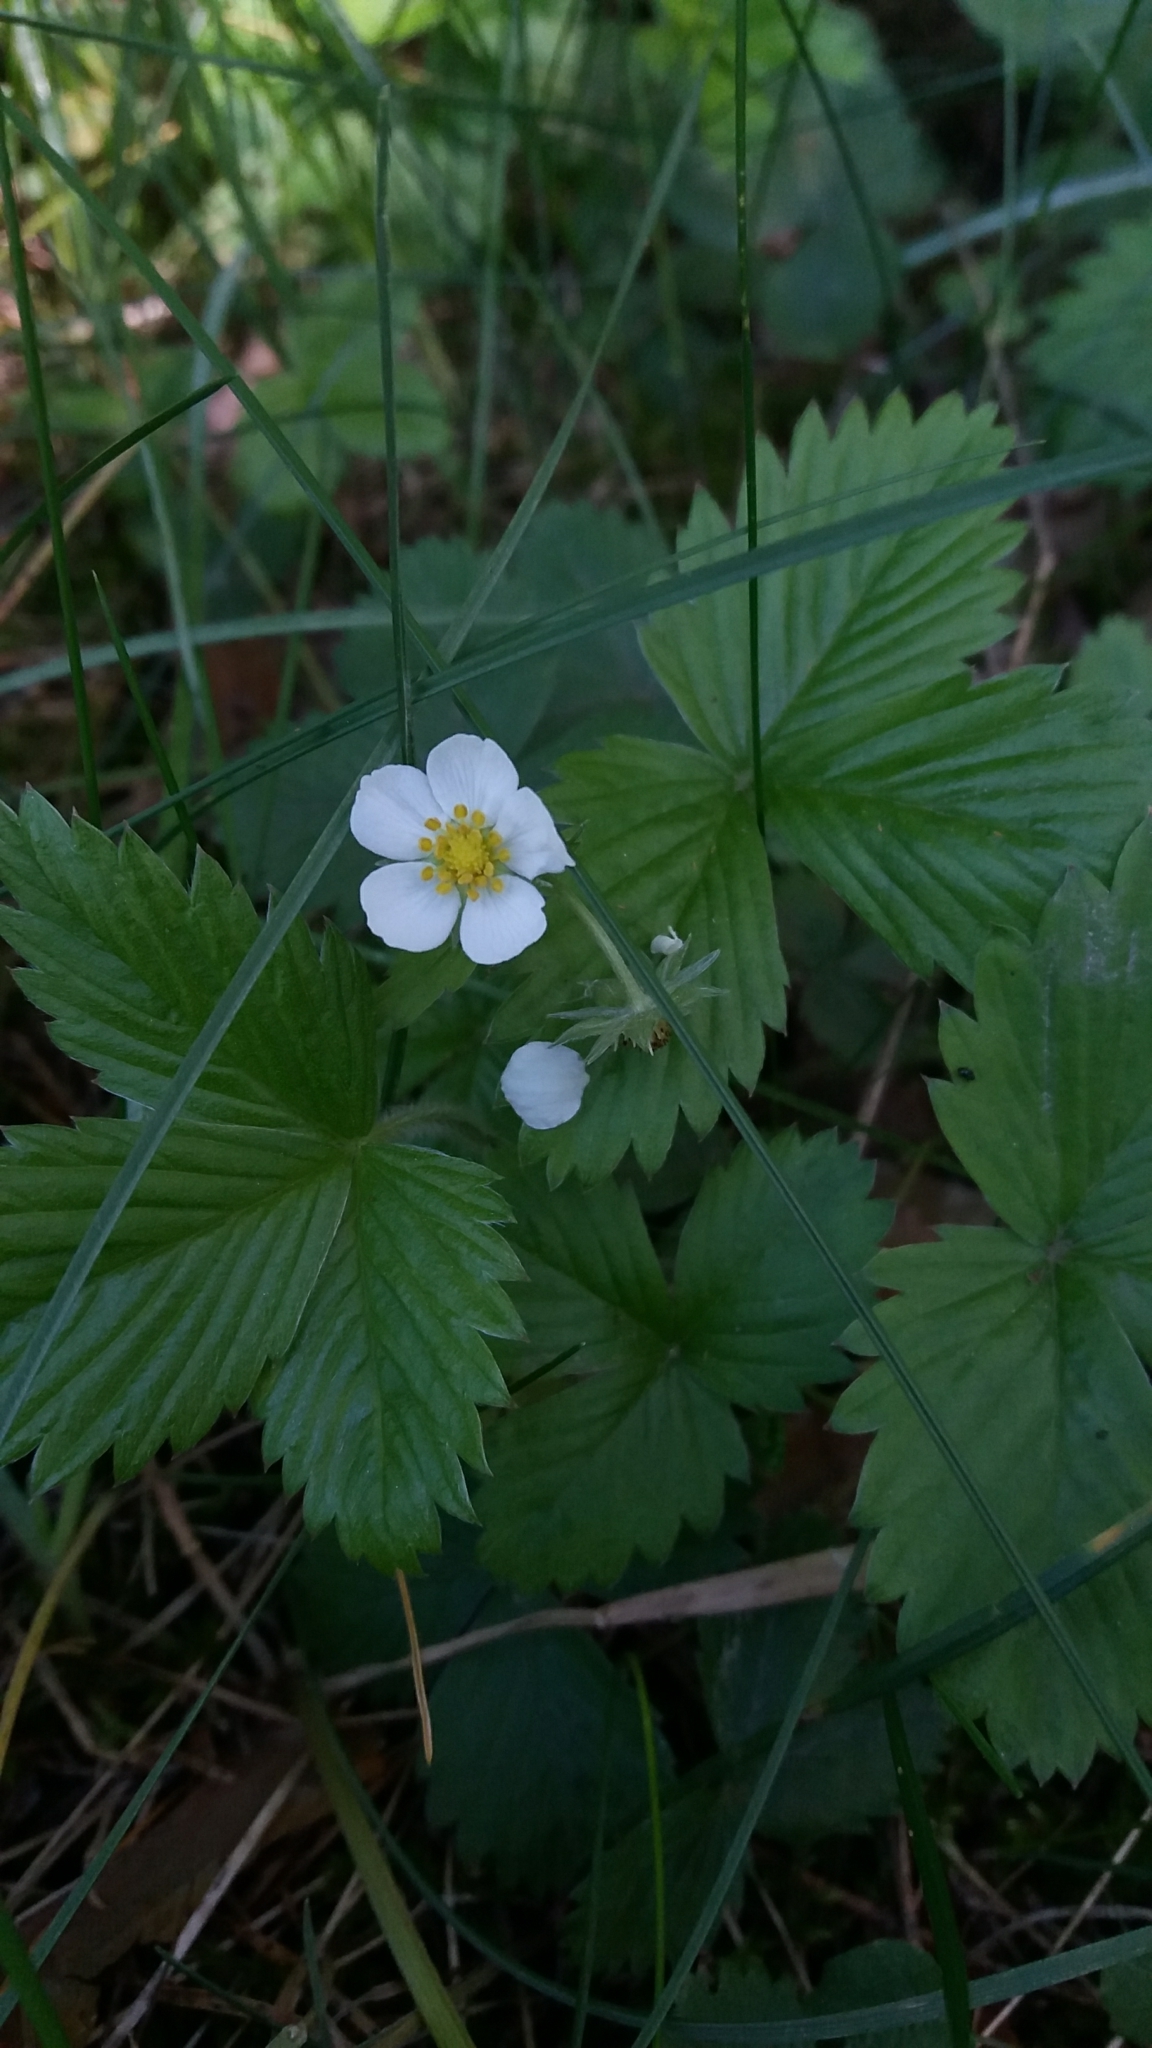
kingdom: Plantae
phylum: Tracheophyta
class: Magnoliopsida
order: Rosales
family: Rosaceae
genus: Fragaria
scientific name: Fragaria vesca
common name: Wild strawberry
